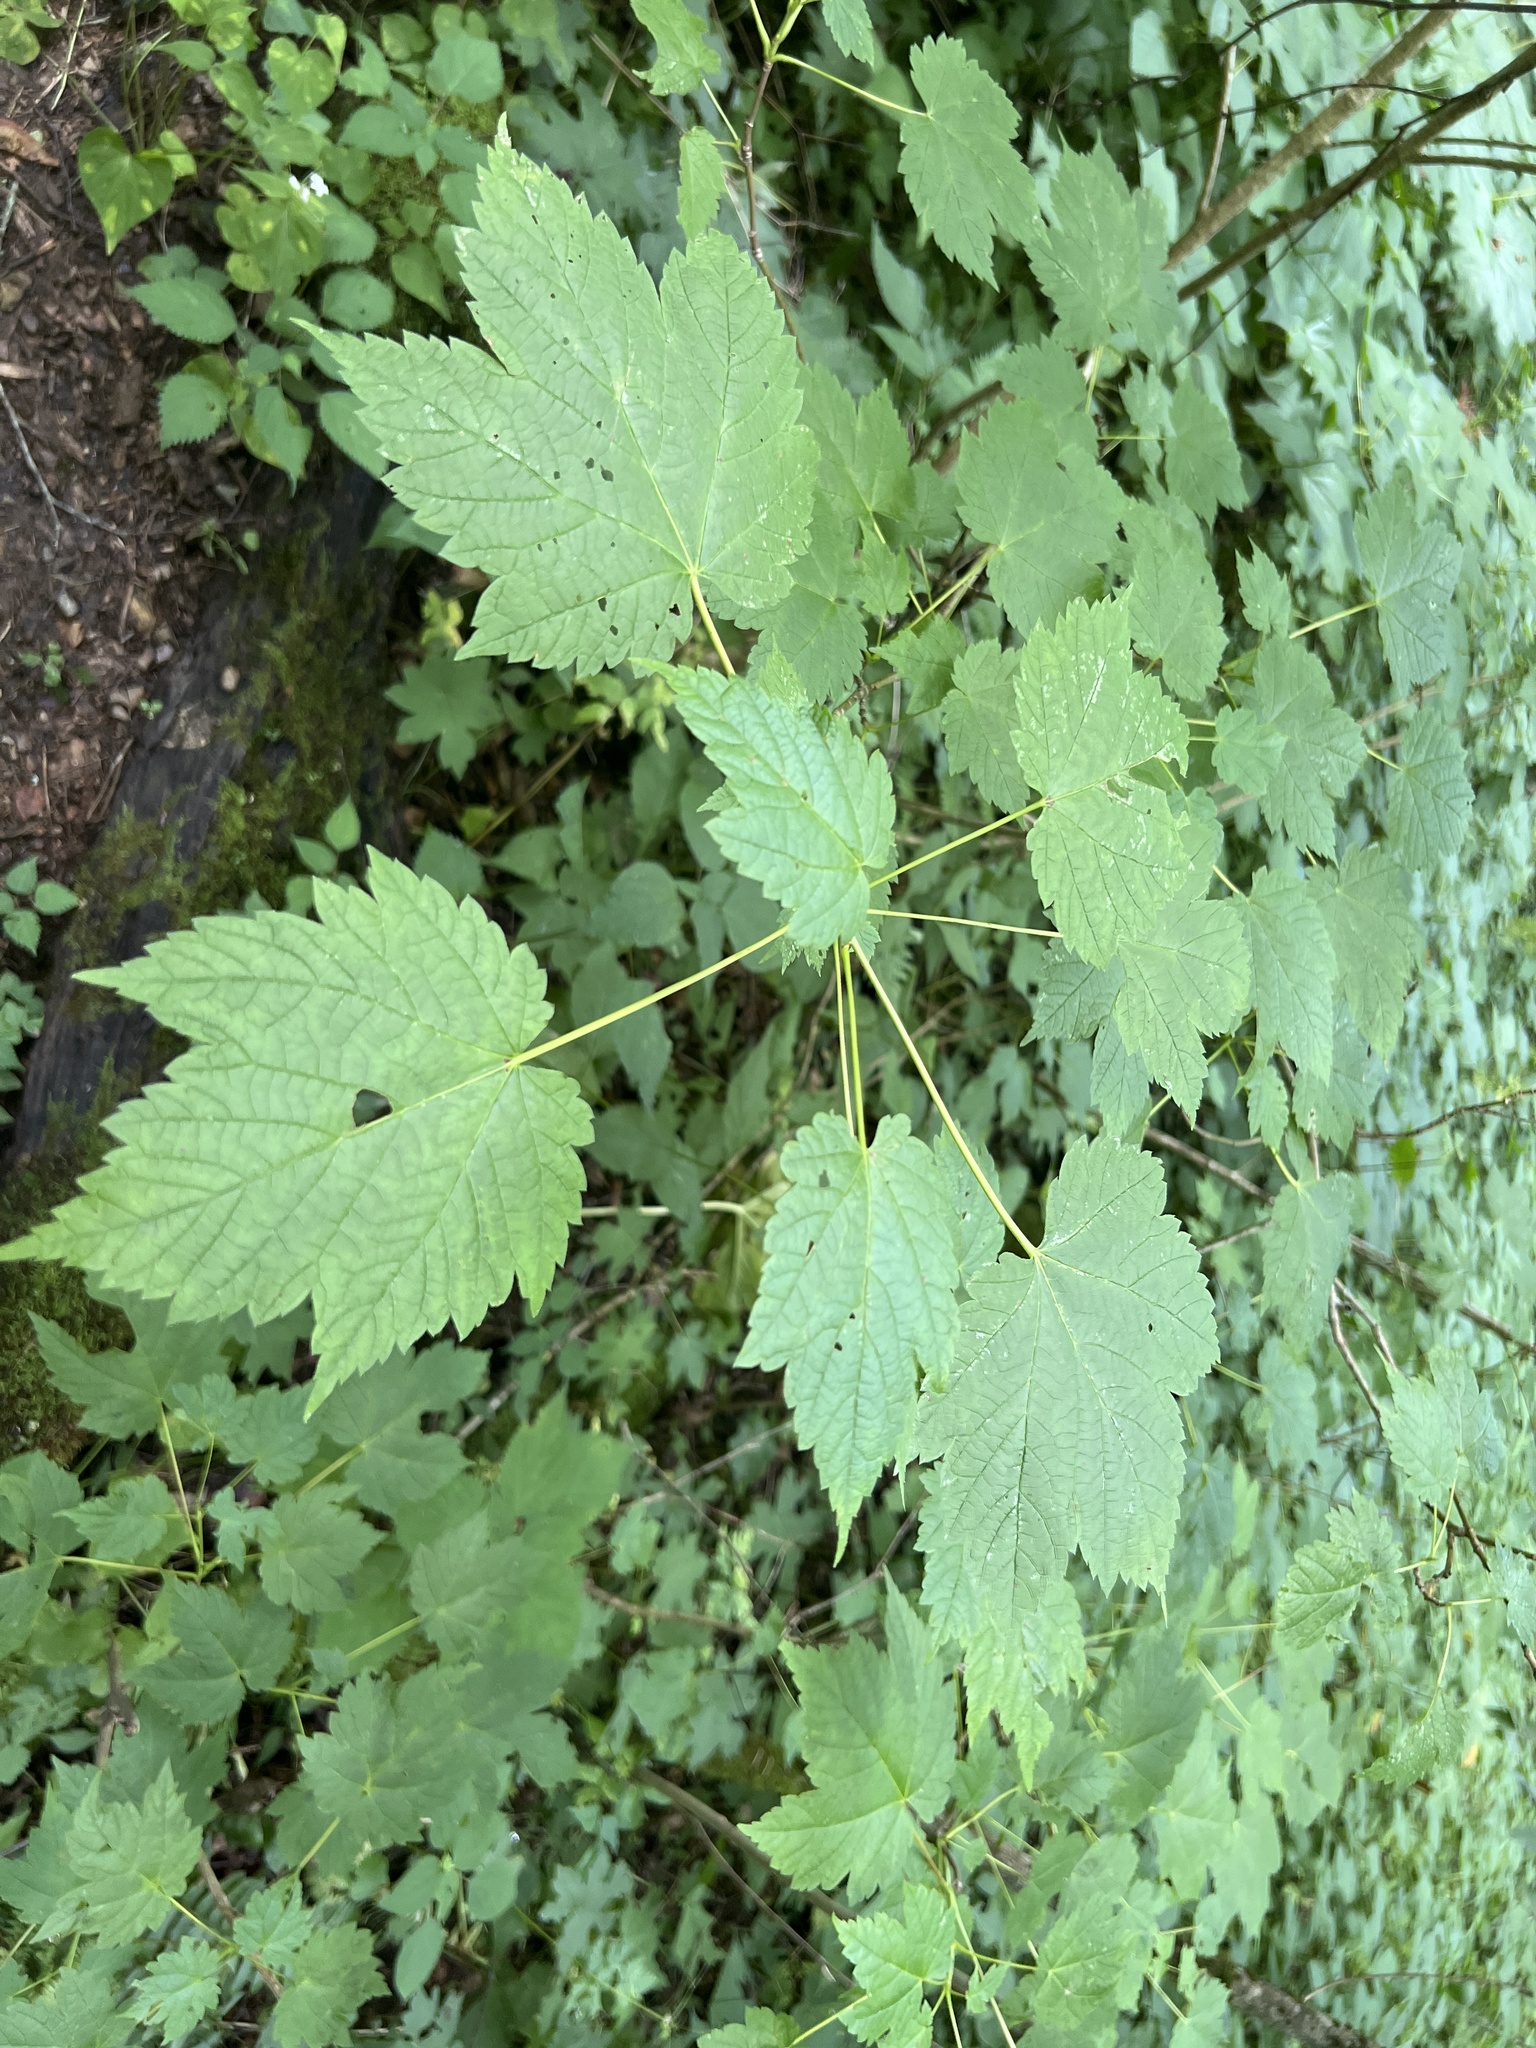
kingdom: Plantae
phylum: Tracheophyta
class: Magnoliopsida
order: Sapindales
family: Sapindaceae
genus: Acer
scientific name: Acer spicatum
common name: Mountain maple
